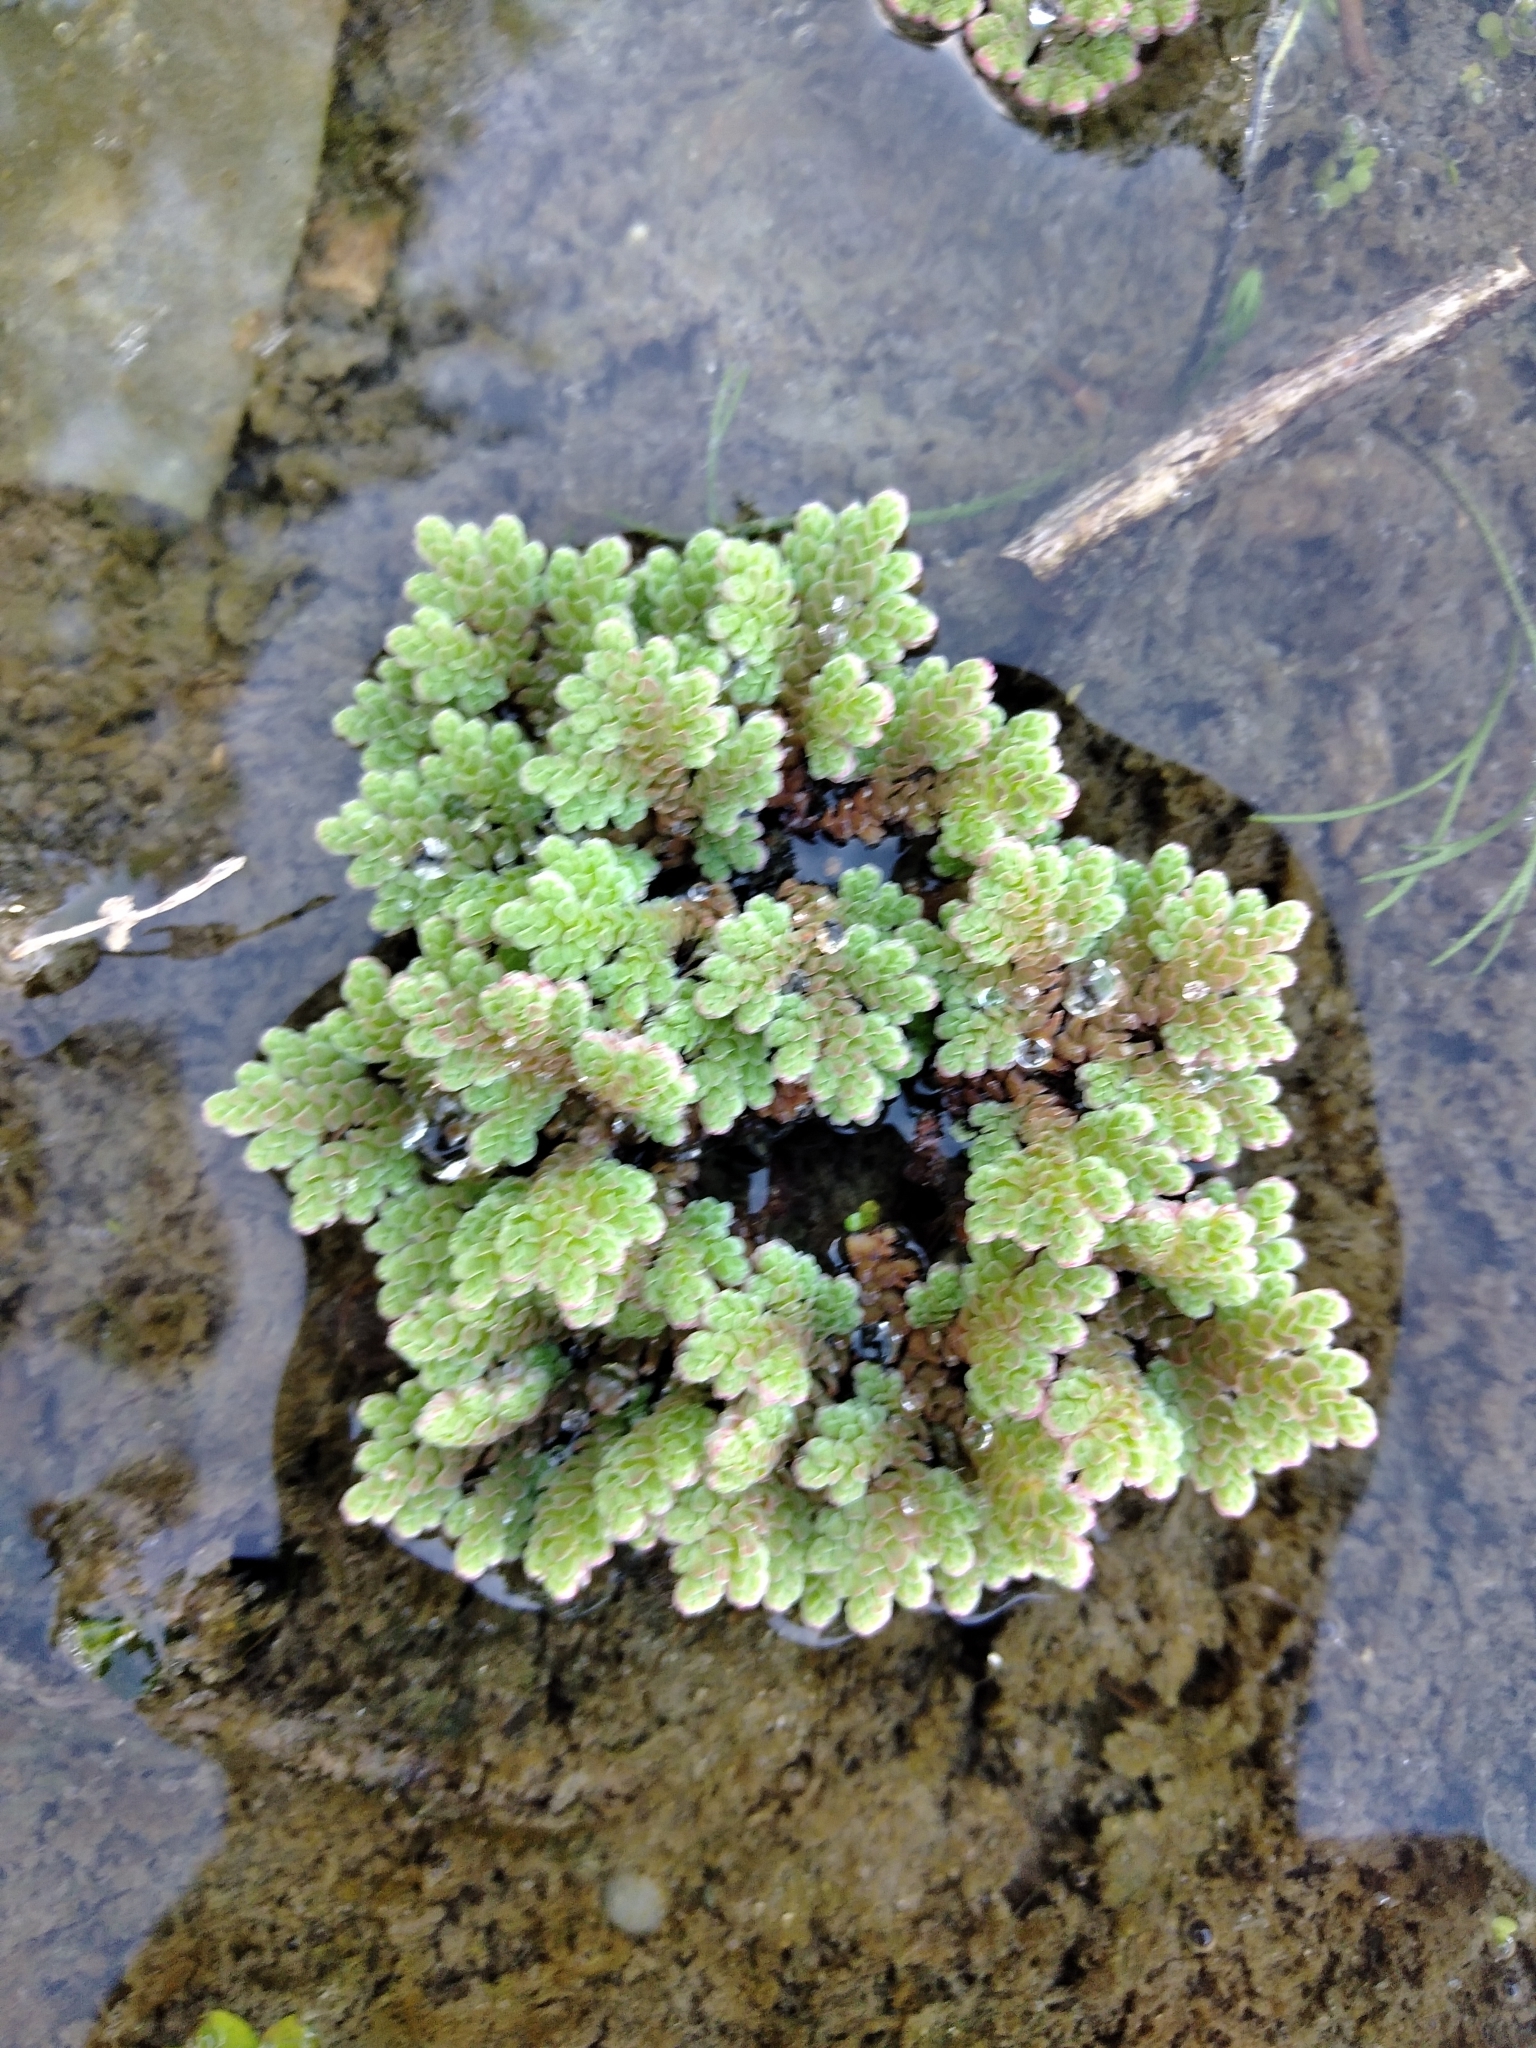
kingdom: Plantae
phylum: Tracheophyta
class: Polypodiopsida
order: Salviniales
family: Salviniaceae
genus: Azolla
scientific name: Azolla filiculoides
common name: Water fern
